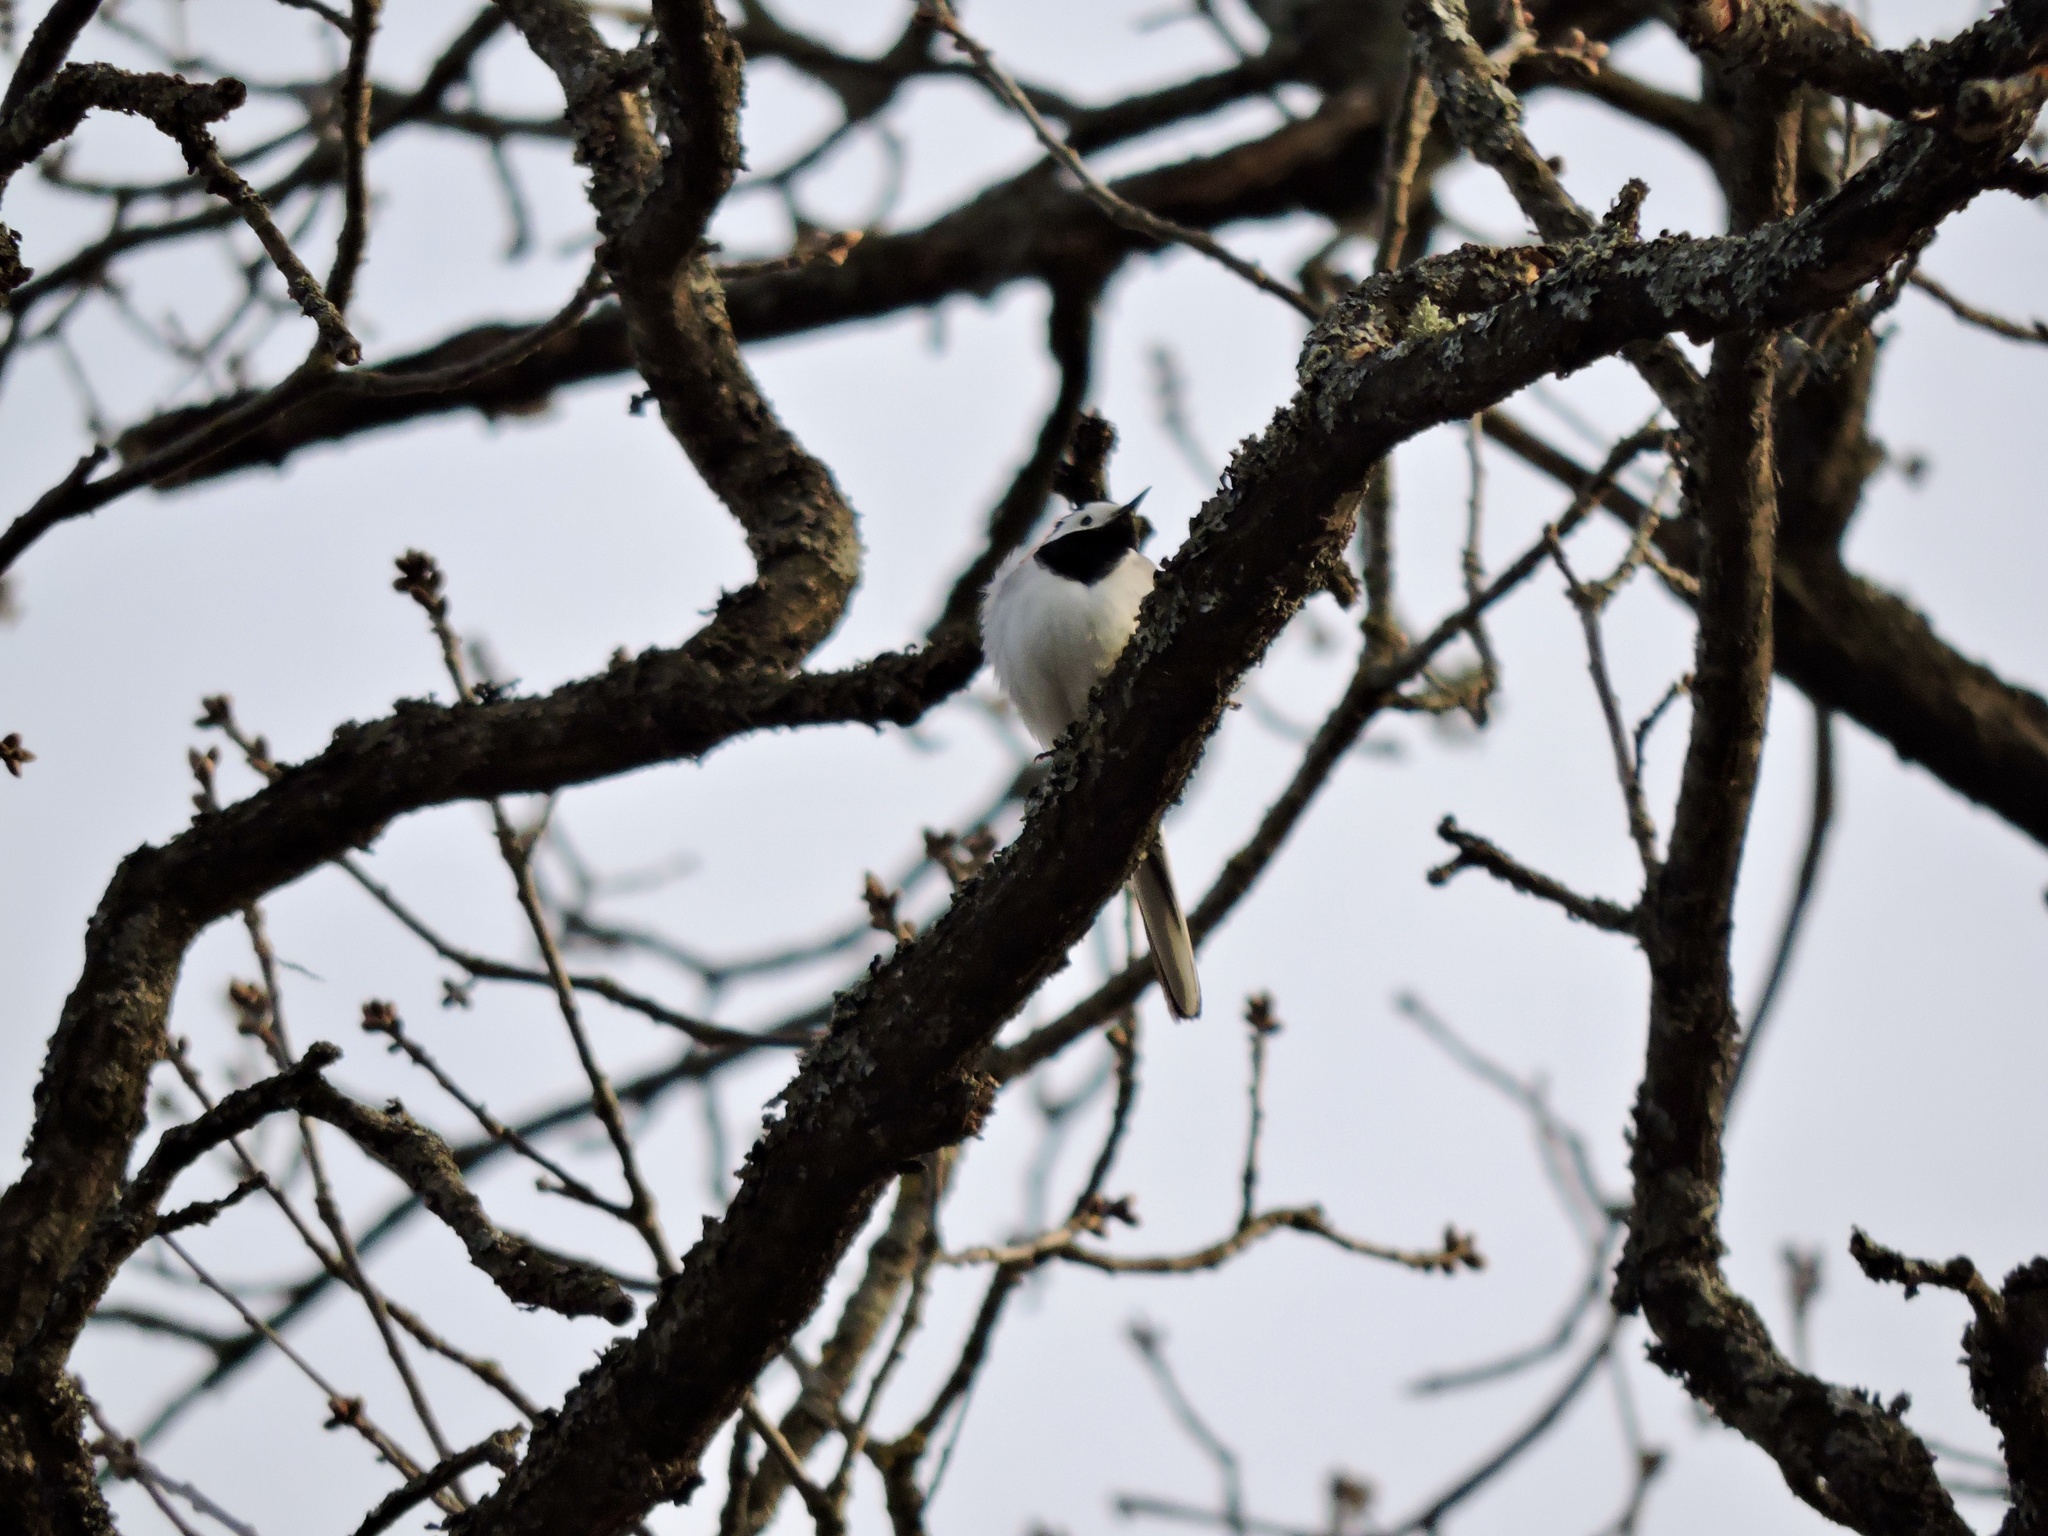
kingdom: Animalia
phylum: Chordata
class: Aves
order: Passeriformes
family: Motacillidae
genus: Motacilla
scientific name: Motacilla alba
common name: White wagtail
